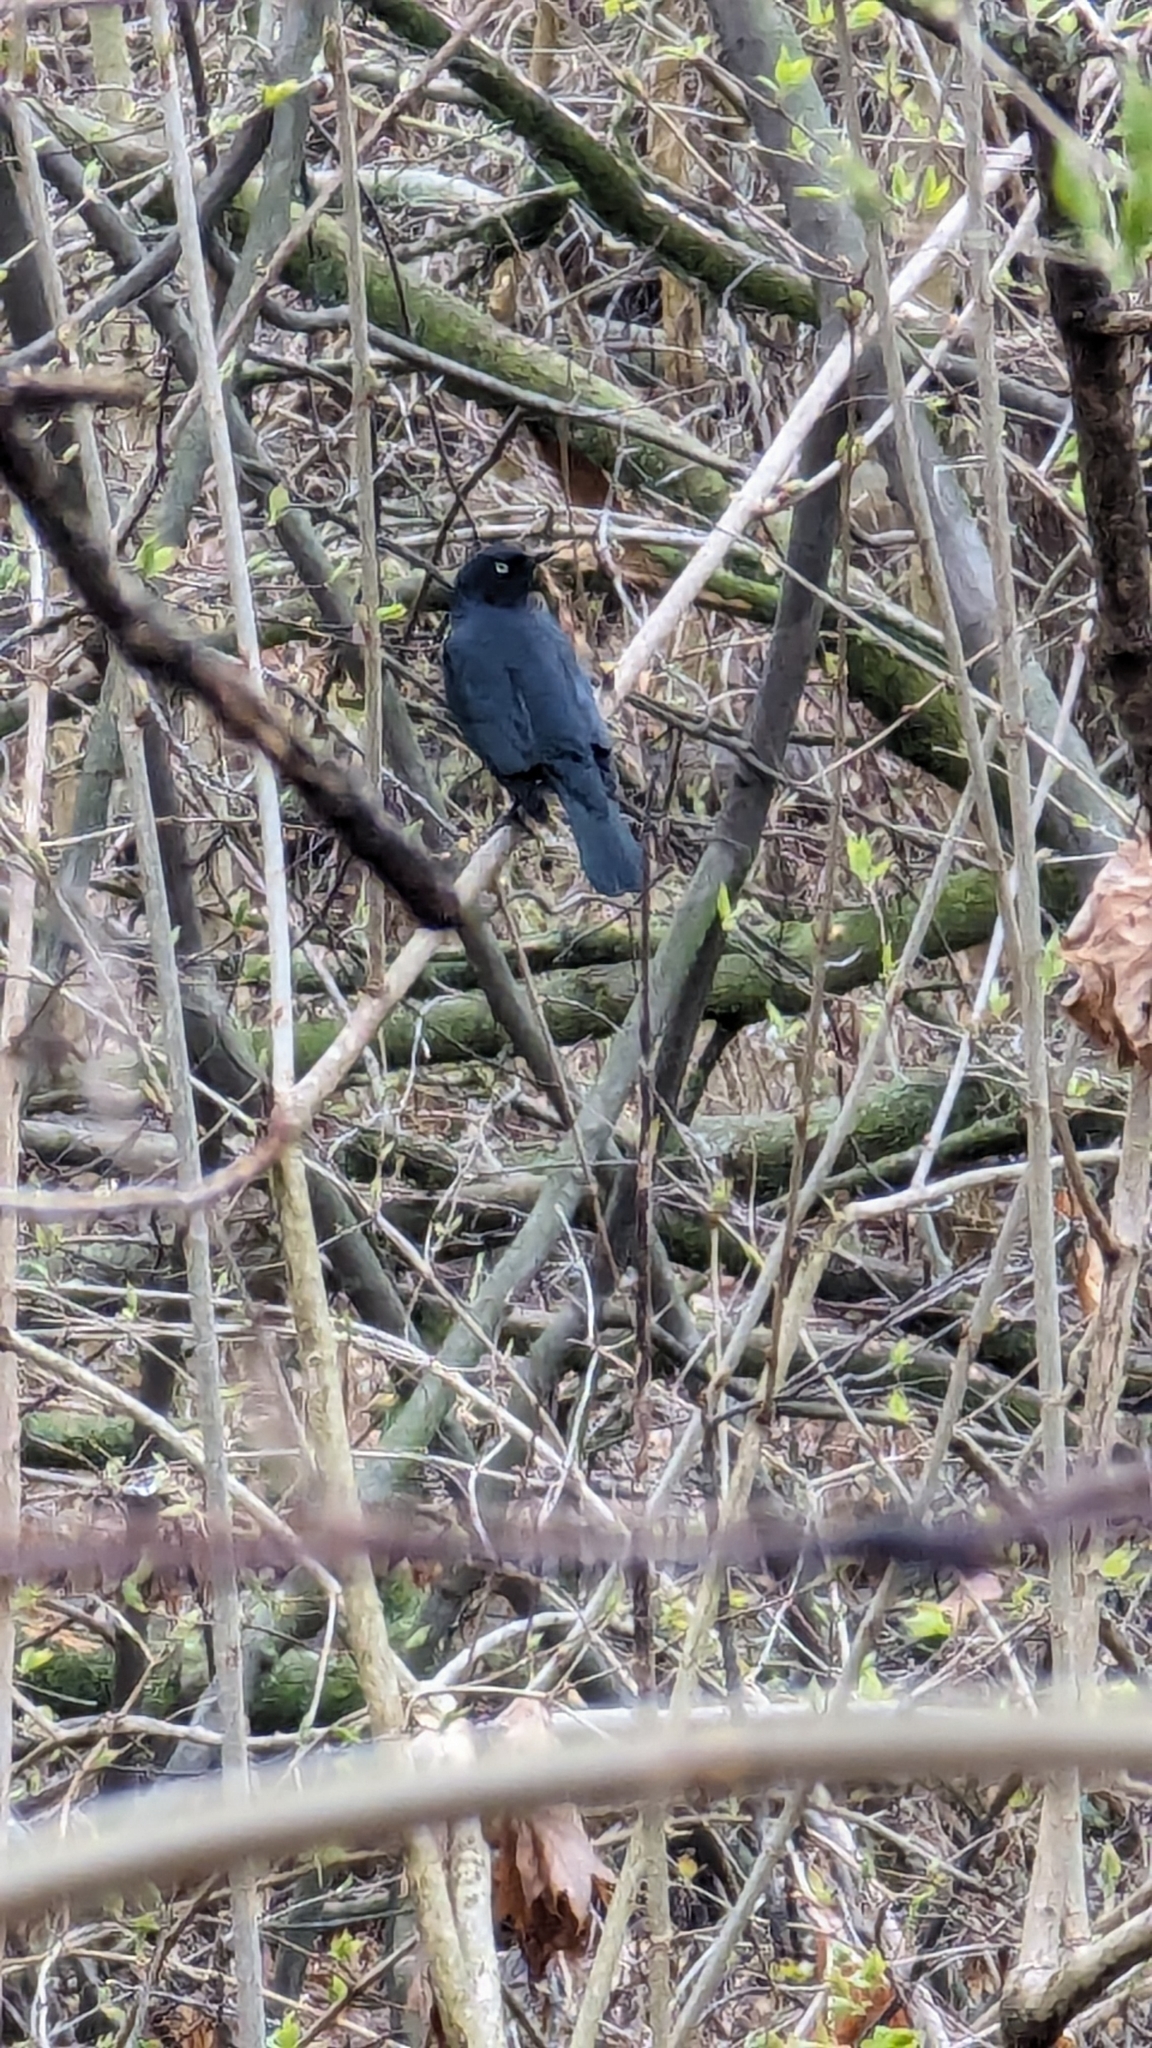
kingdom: Animalia
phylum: Chordata
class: Aves
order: Passeriformes
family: Icteridae
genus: Euphagus
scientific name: Euphagus carolinus
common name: Rusty blackbird
